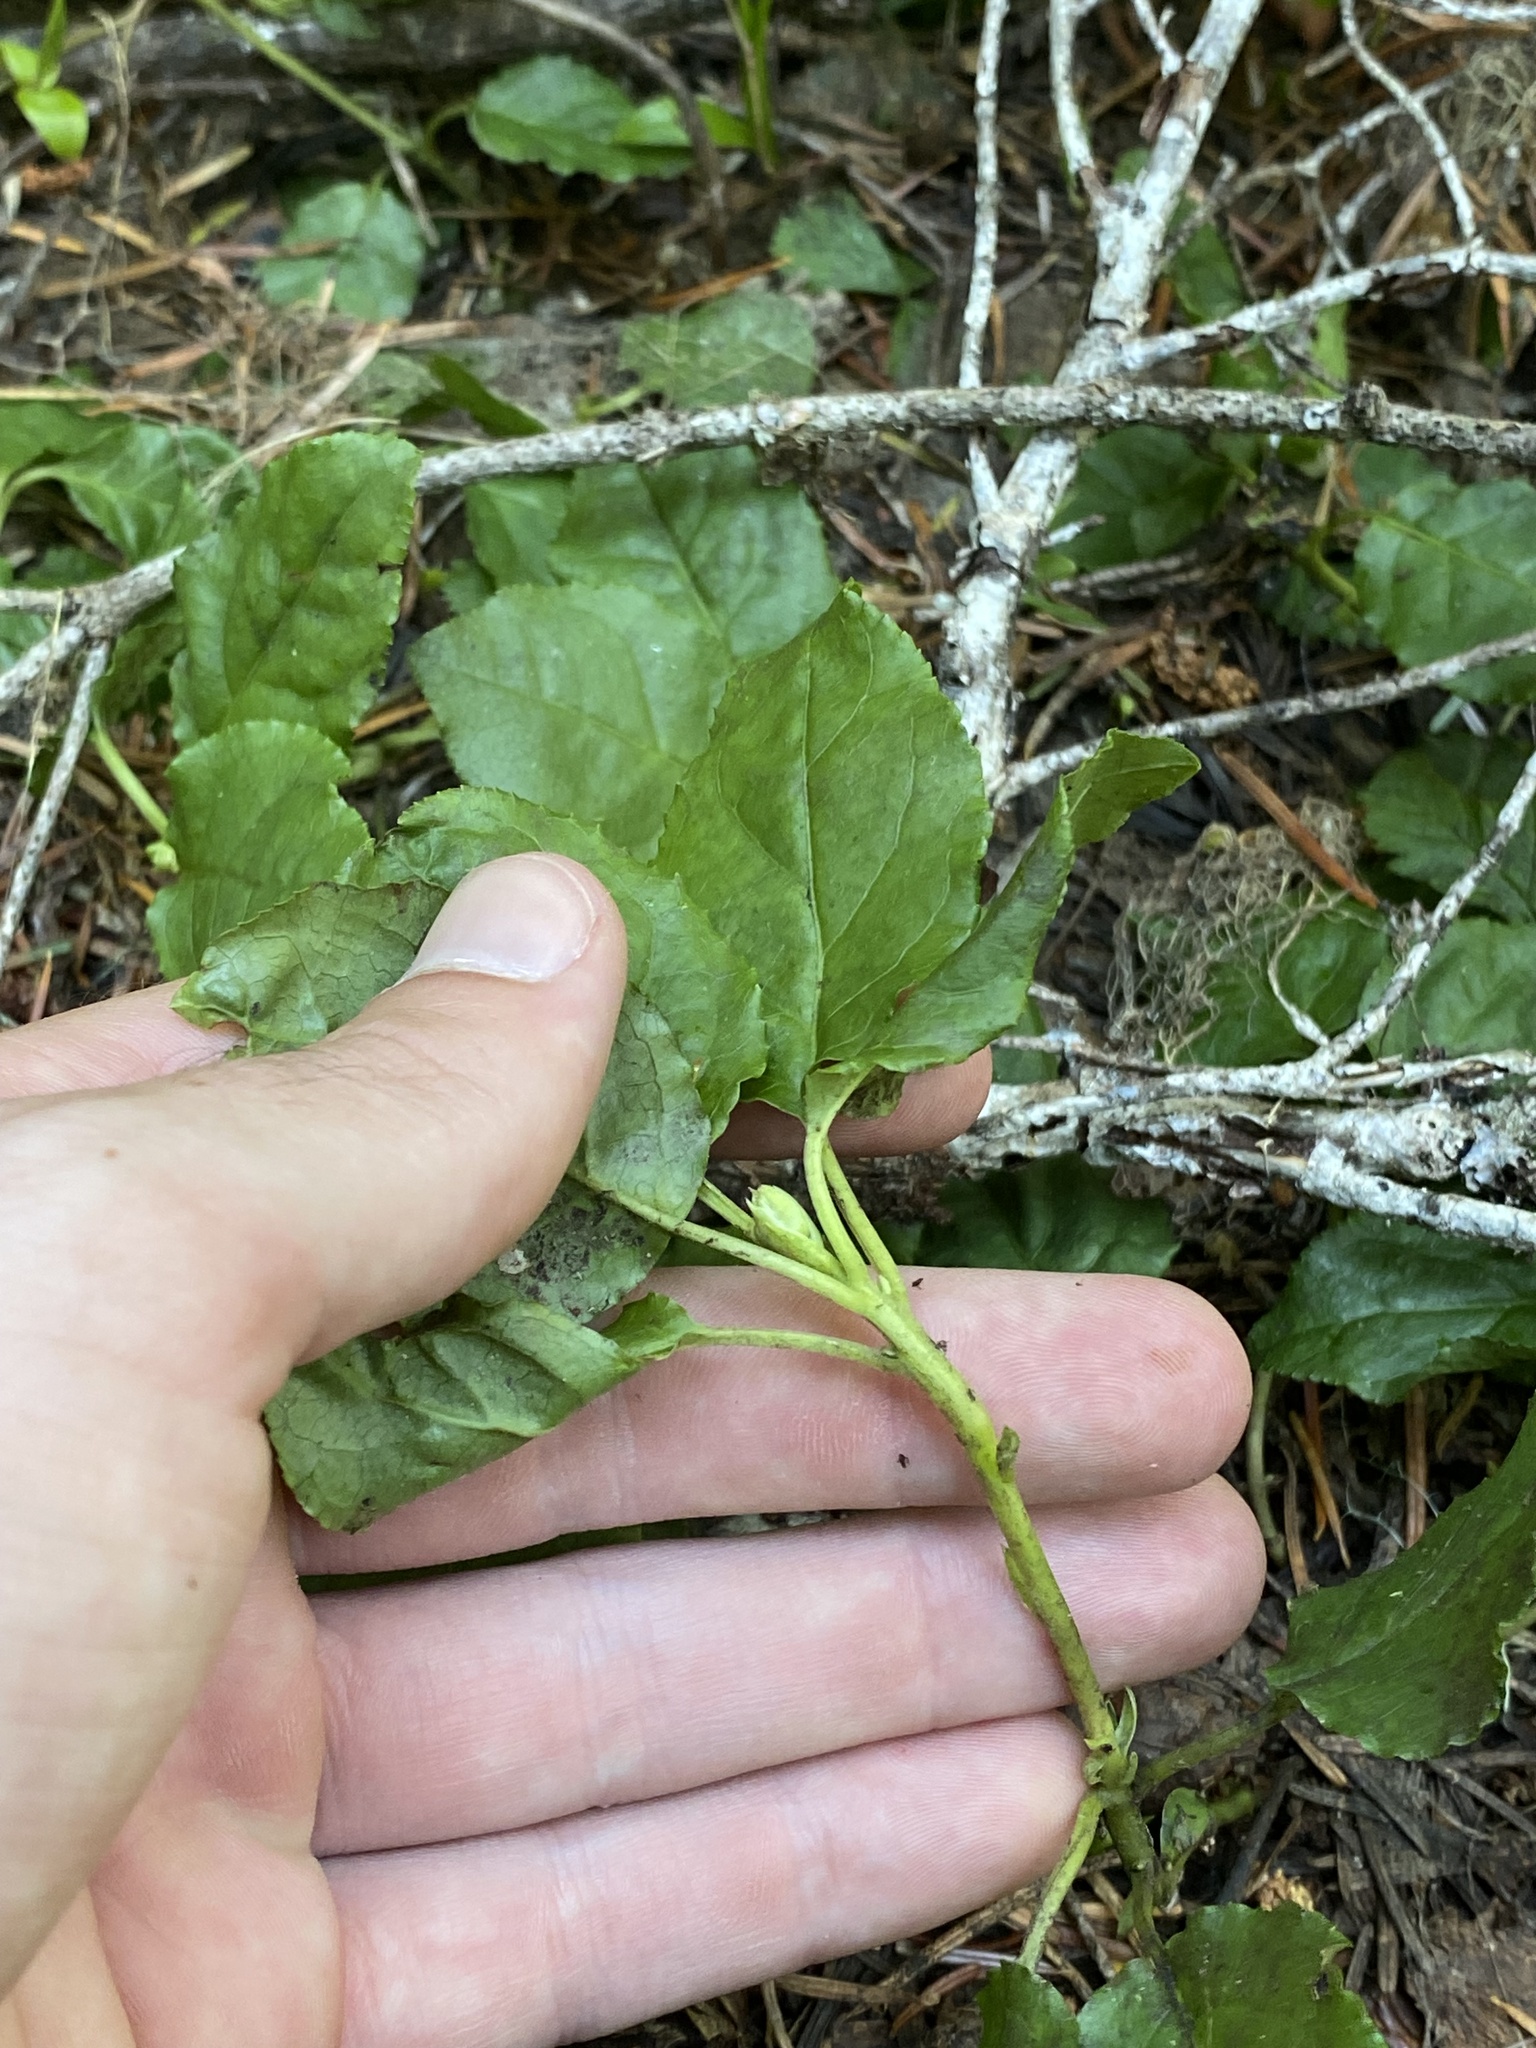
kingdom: Plantae
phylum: Tracheophyta
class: Magnoliopsida
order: Ericales
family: Ericaceae
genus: Orthilia
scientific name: Orthilia secunda
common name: One-sided orthilia
